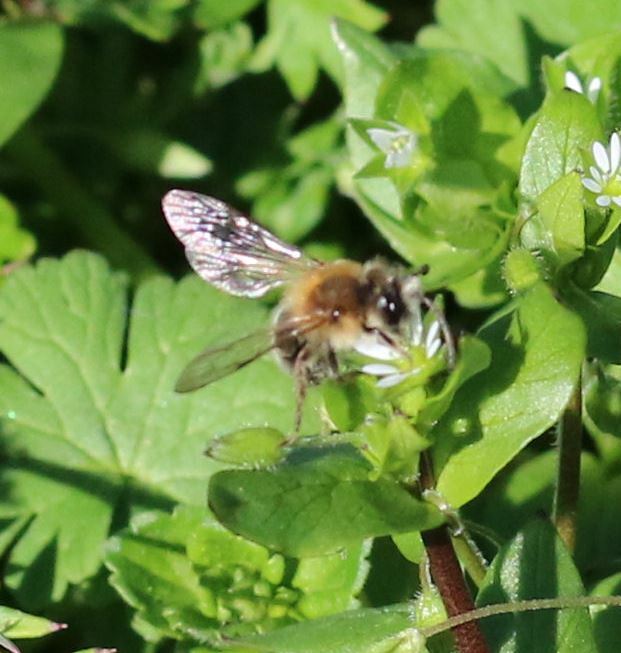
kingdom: Animalia
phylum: Arthropoda
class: Insecta
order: Hymenoptera
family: Andrenidae
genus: Andrena
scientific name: Andrena nitida
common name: Grey-patched mining bee
